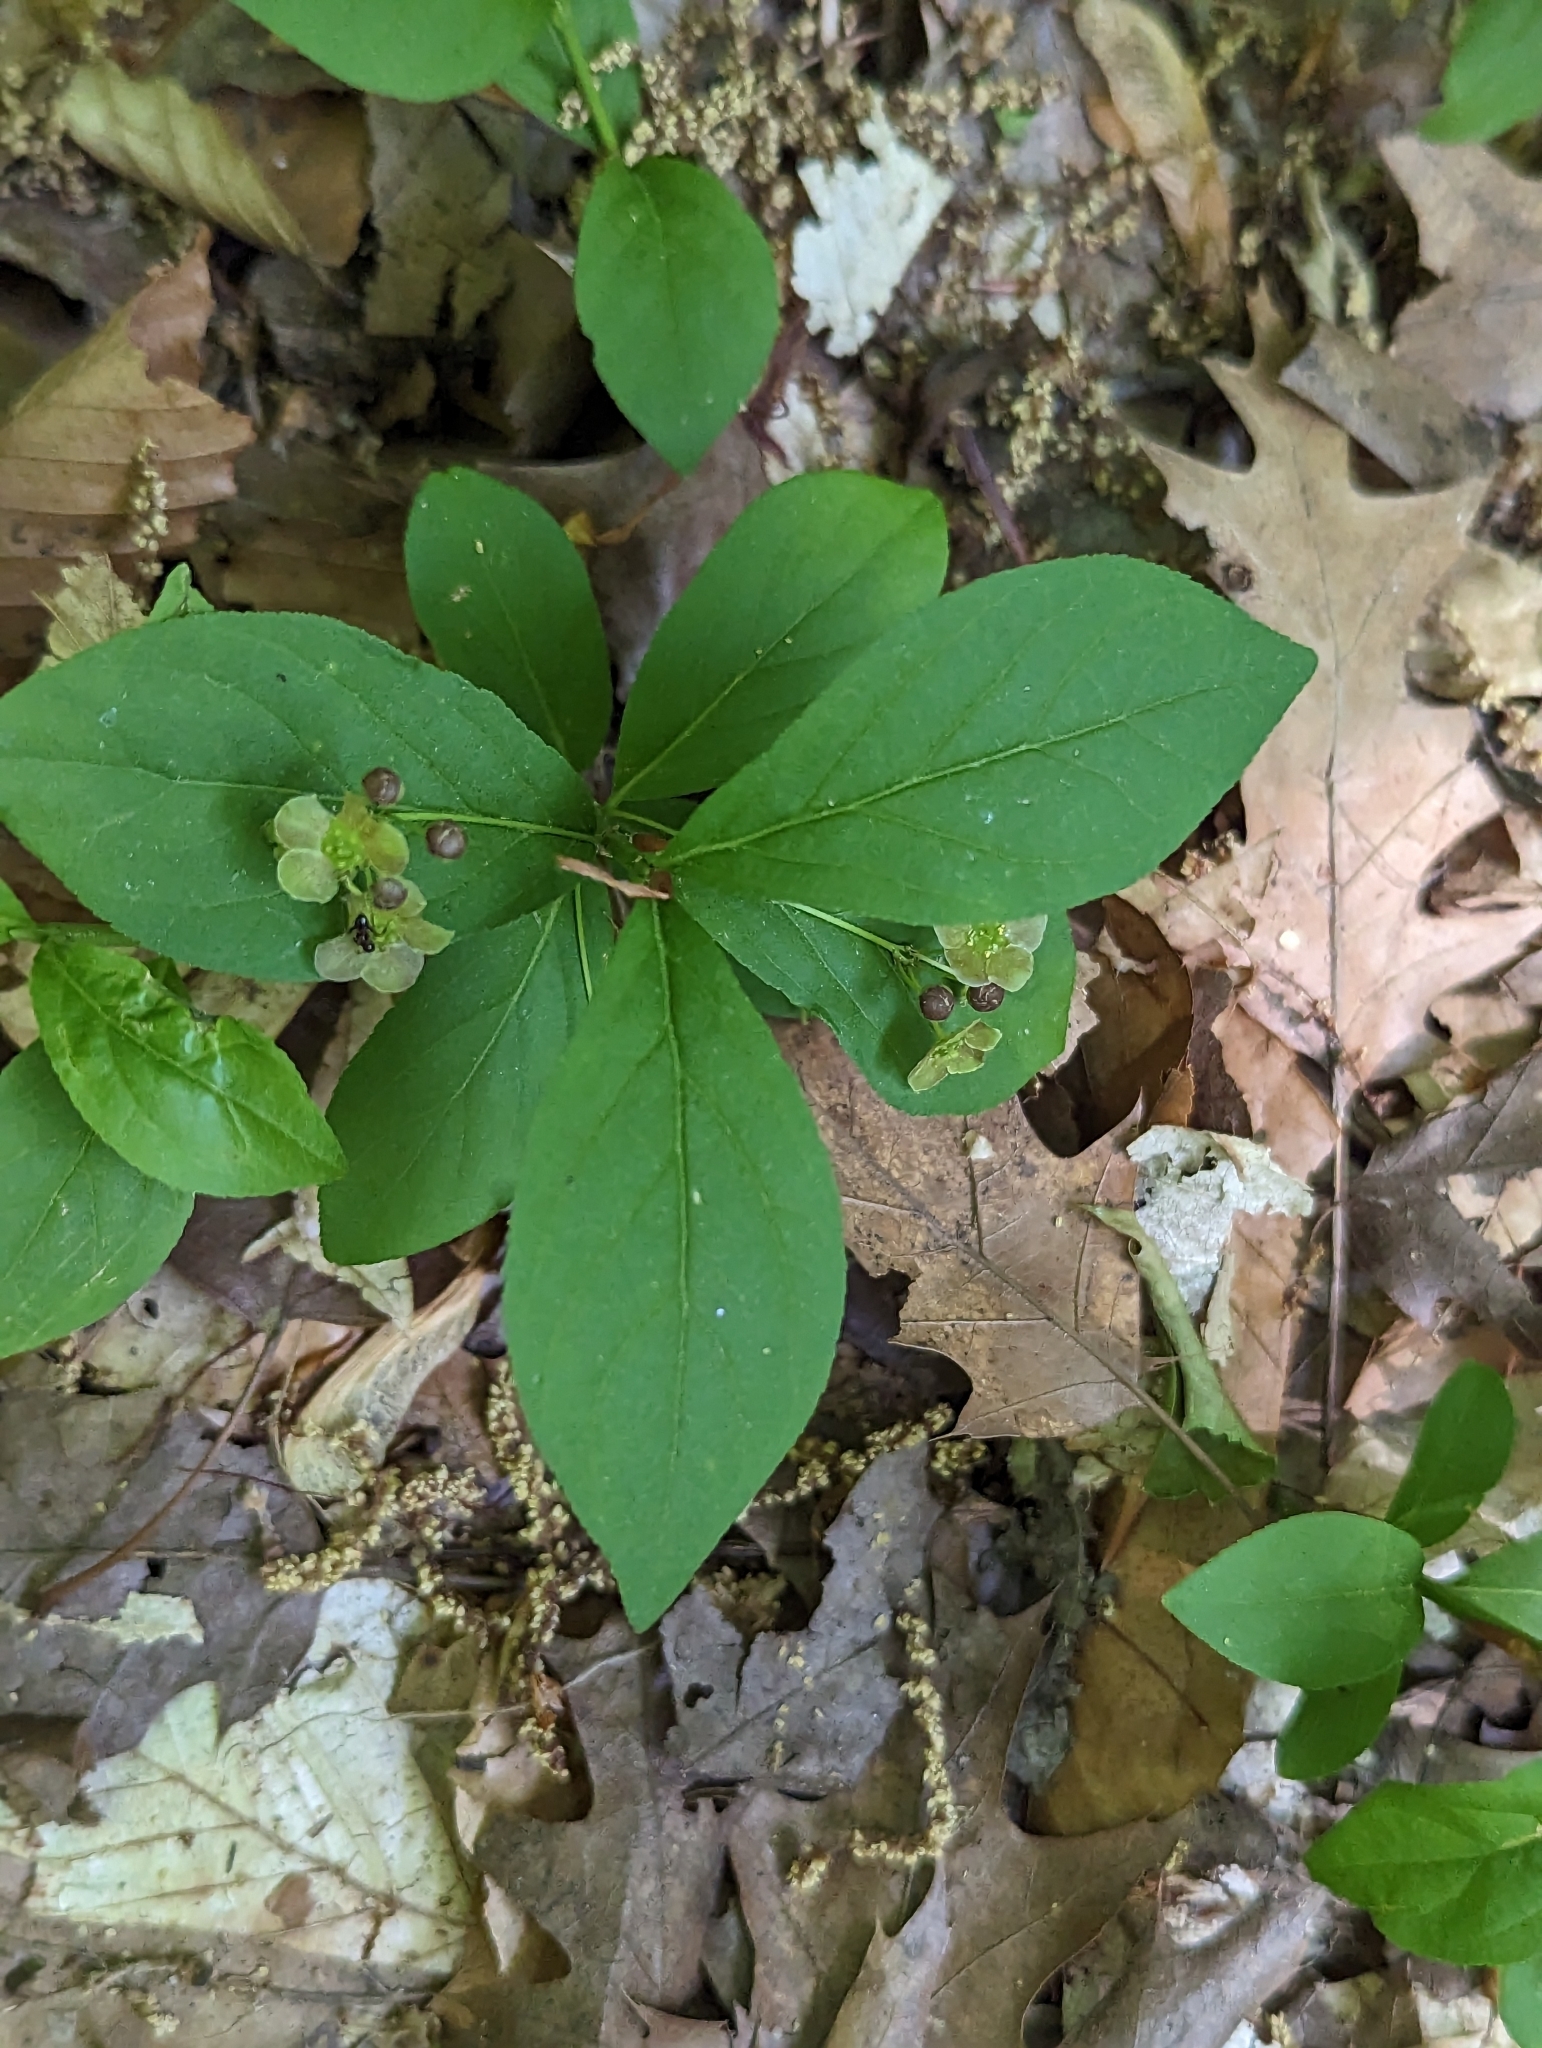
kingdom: Plantae
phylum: Tracheophyta
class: Magnoliopsida
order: Celastrales
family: Celastraceae
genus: Euonymus
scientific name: Euonymus obovatus
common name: Running strawberry-bush
